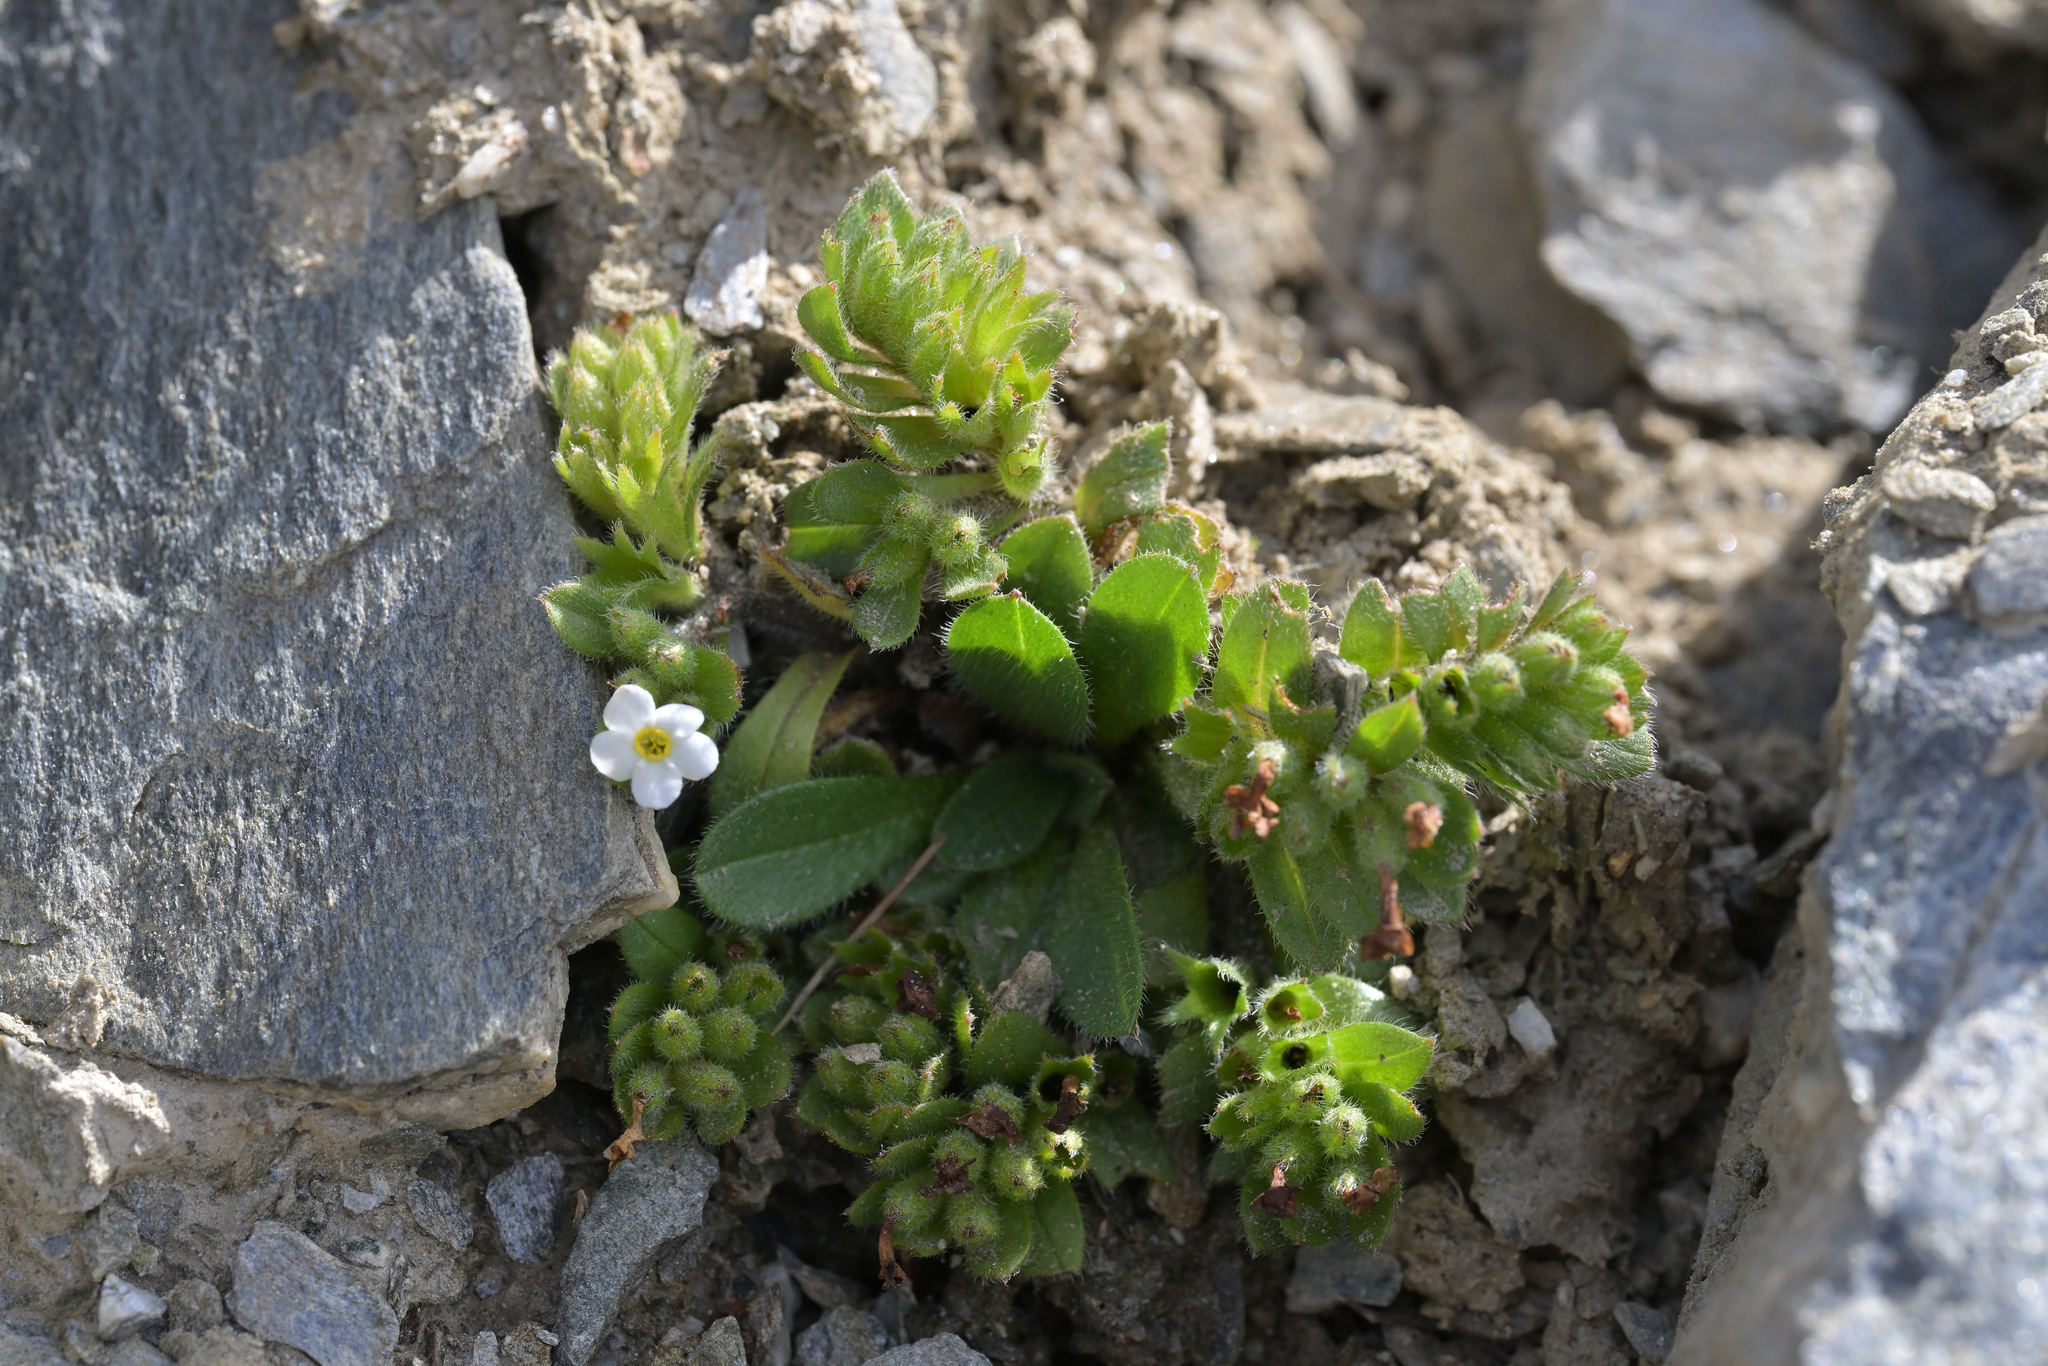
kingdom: Plantae
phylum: Tracheophyta
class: Magnoliopsida
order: Boraginales
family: Boraginaceae
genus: Myosotis
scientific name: Myosotis lyallii
